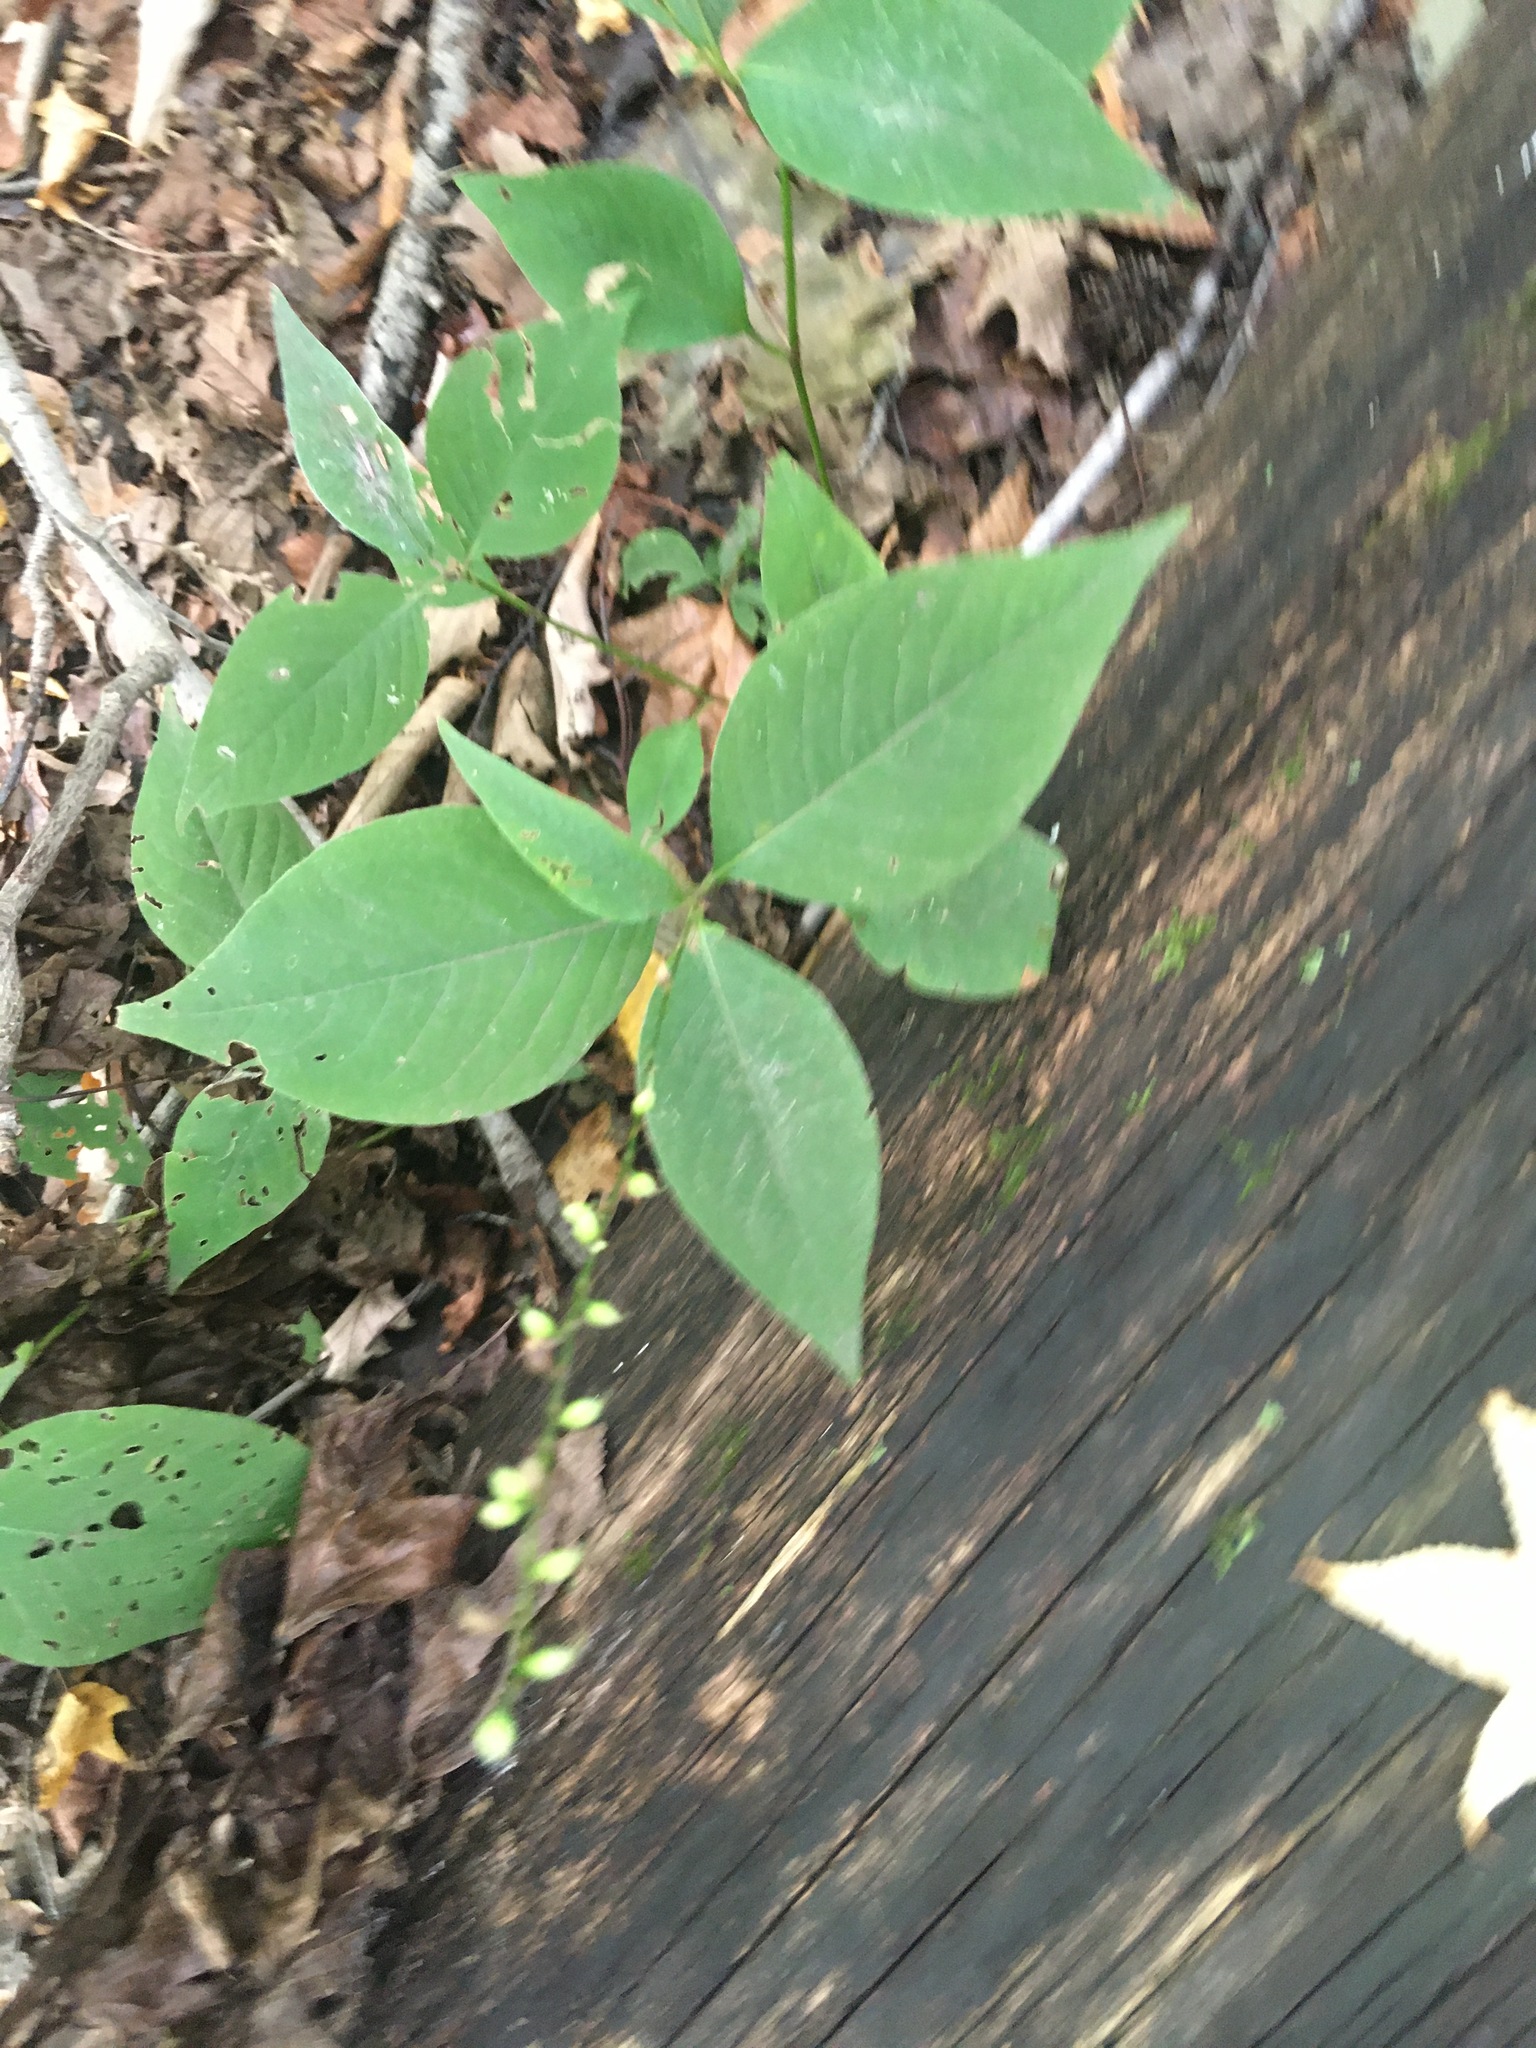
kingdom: Plantae
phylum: Tracheophyta
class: Magnoliopsida
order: Caryophyllales
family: Polygonaceae
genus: Persicaria
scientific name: Persicaria virginiana
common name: Jumpseed
